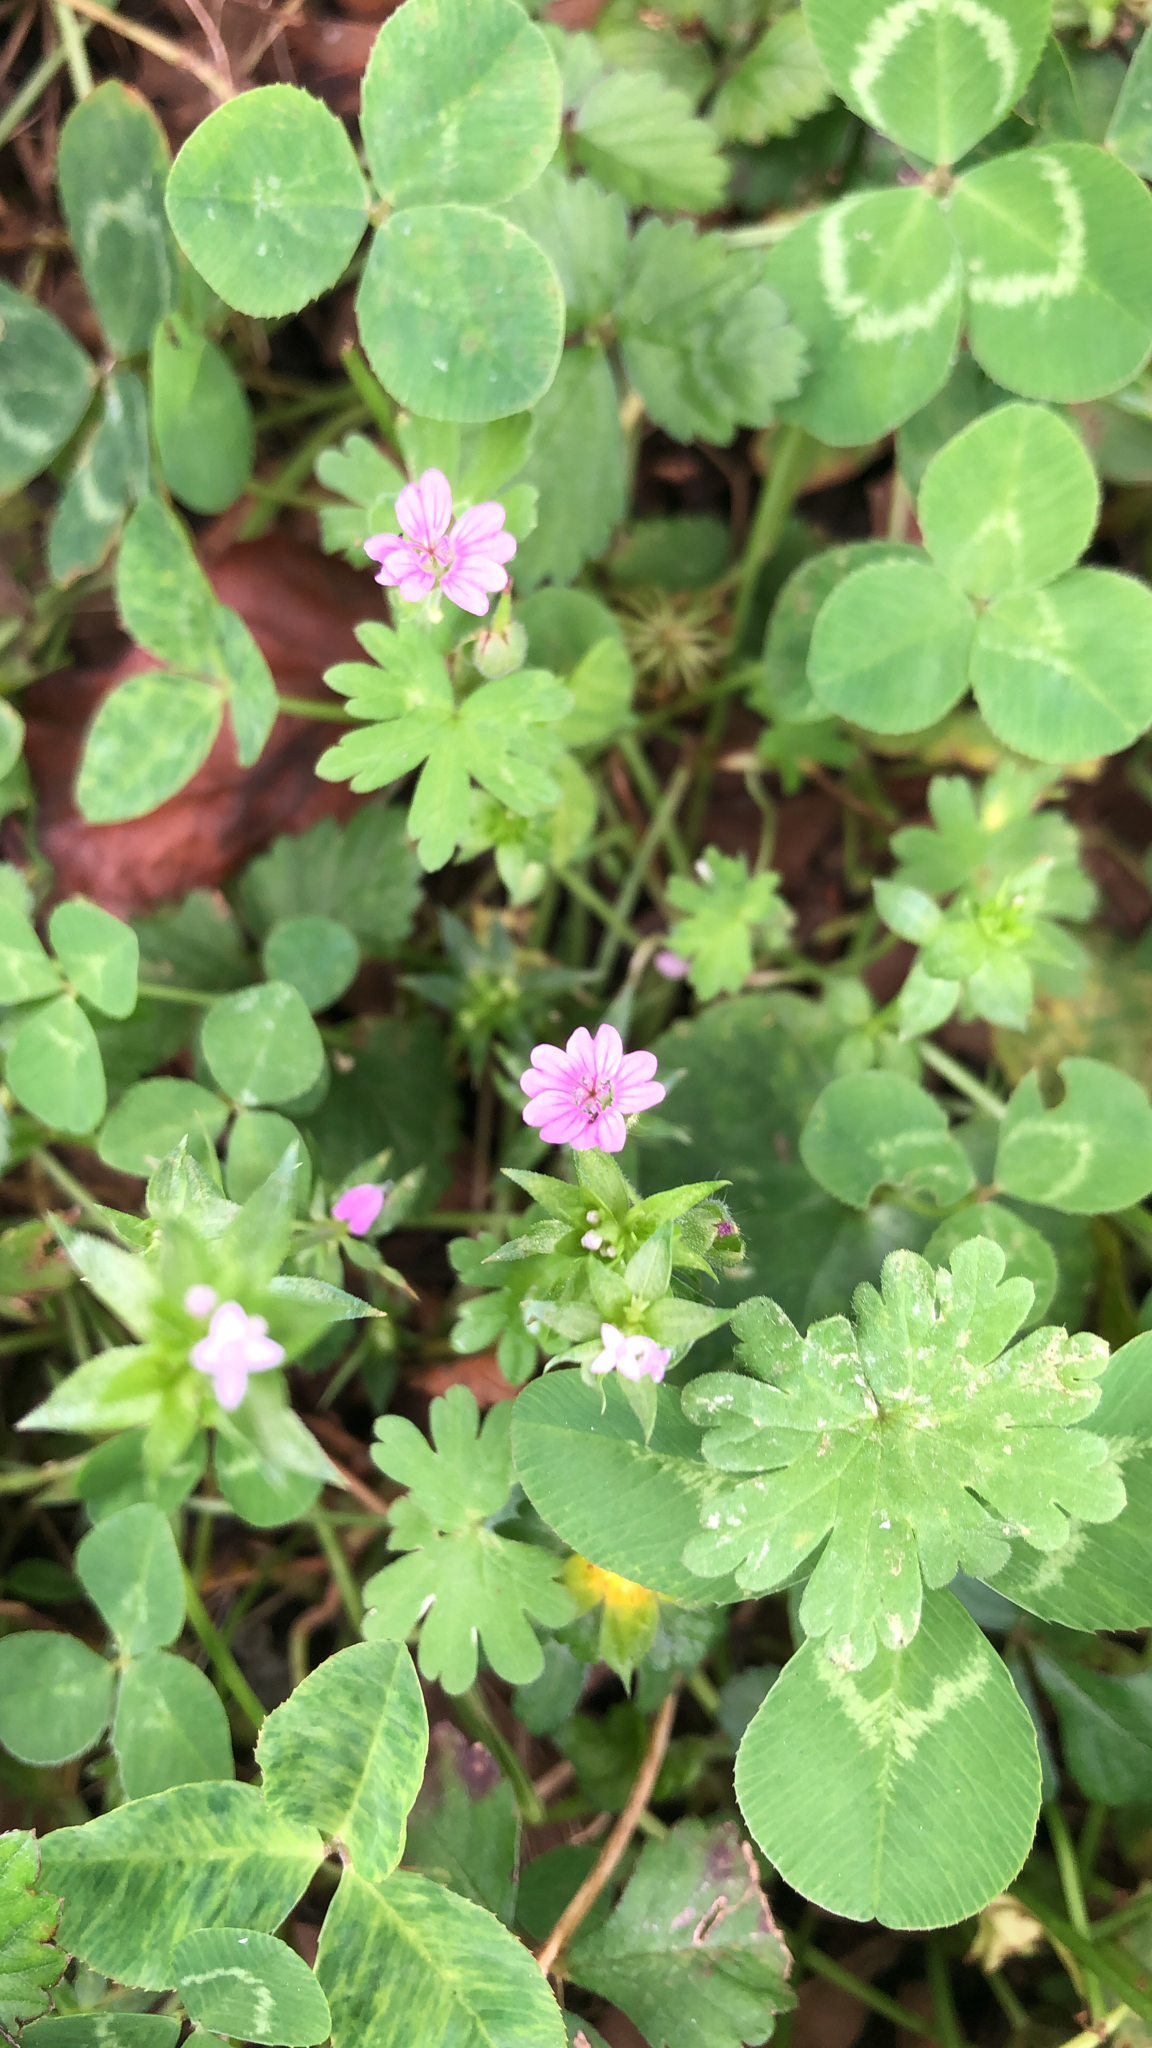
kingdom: Plantae
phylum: Tracheophyta
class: Magnoliopsida
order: Geraniales
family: Geraniaceae
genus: Geranium
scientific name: Geranium molle
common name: Dove's-foot crane's-bill
